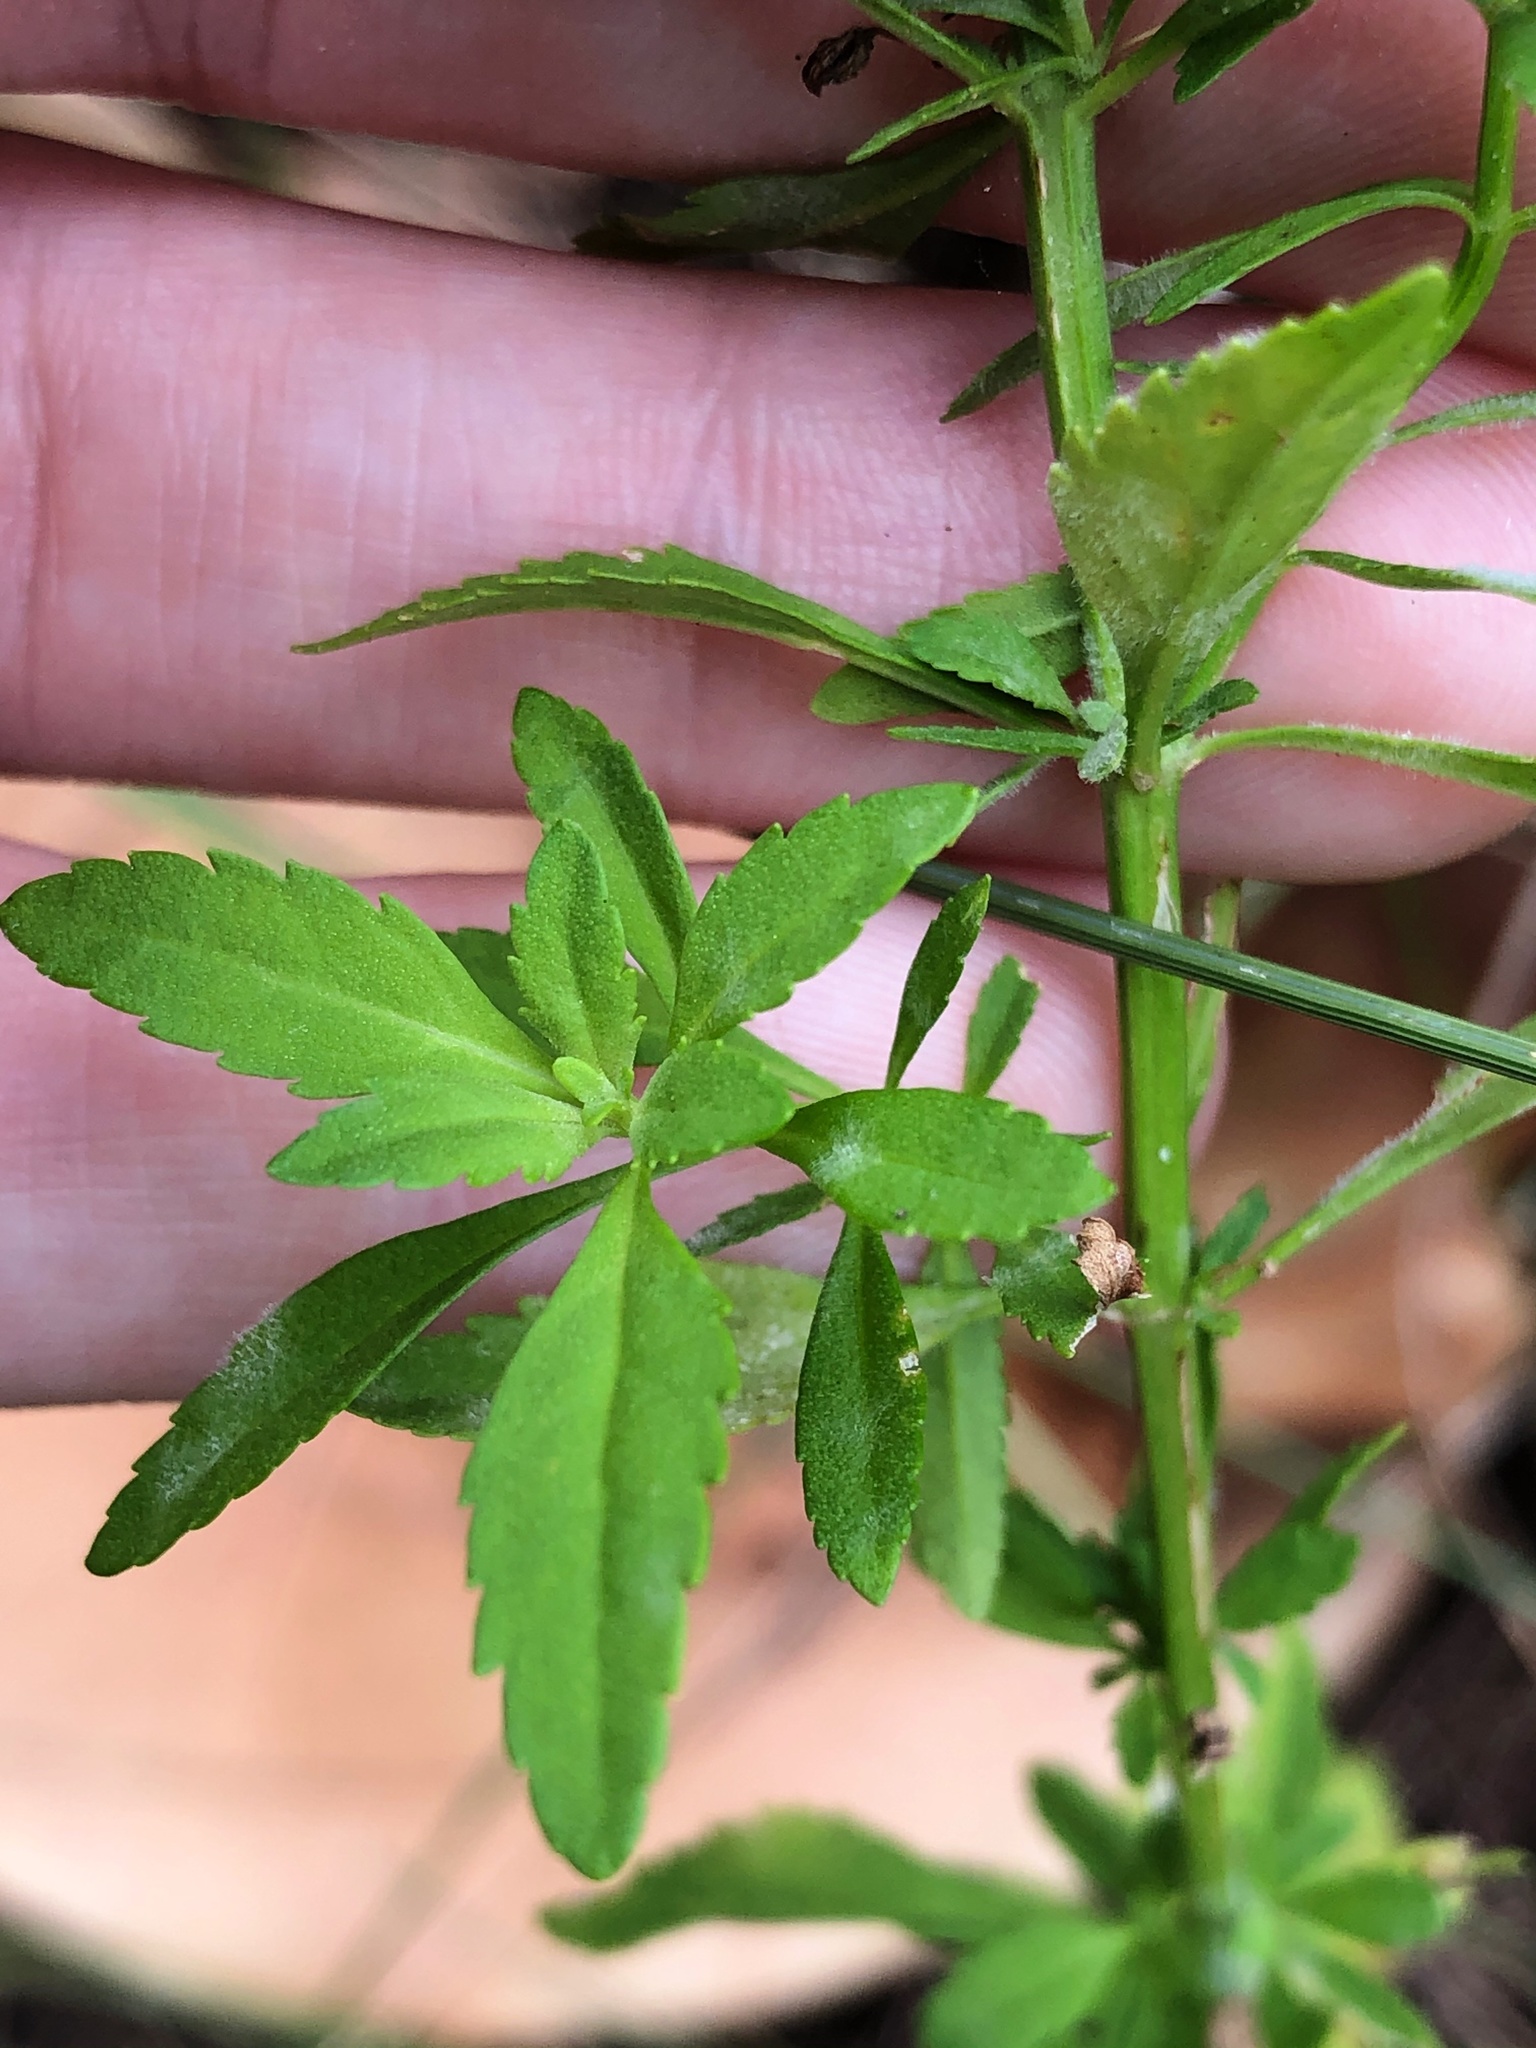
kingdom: Plantae
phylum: Tracheophyta
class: Magnoliopsida
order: Lamiales
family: Plantaginaceae
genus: Scoparia
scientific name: Scoparia dulcis
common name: Scoparia-weed
